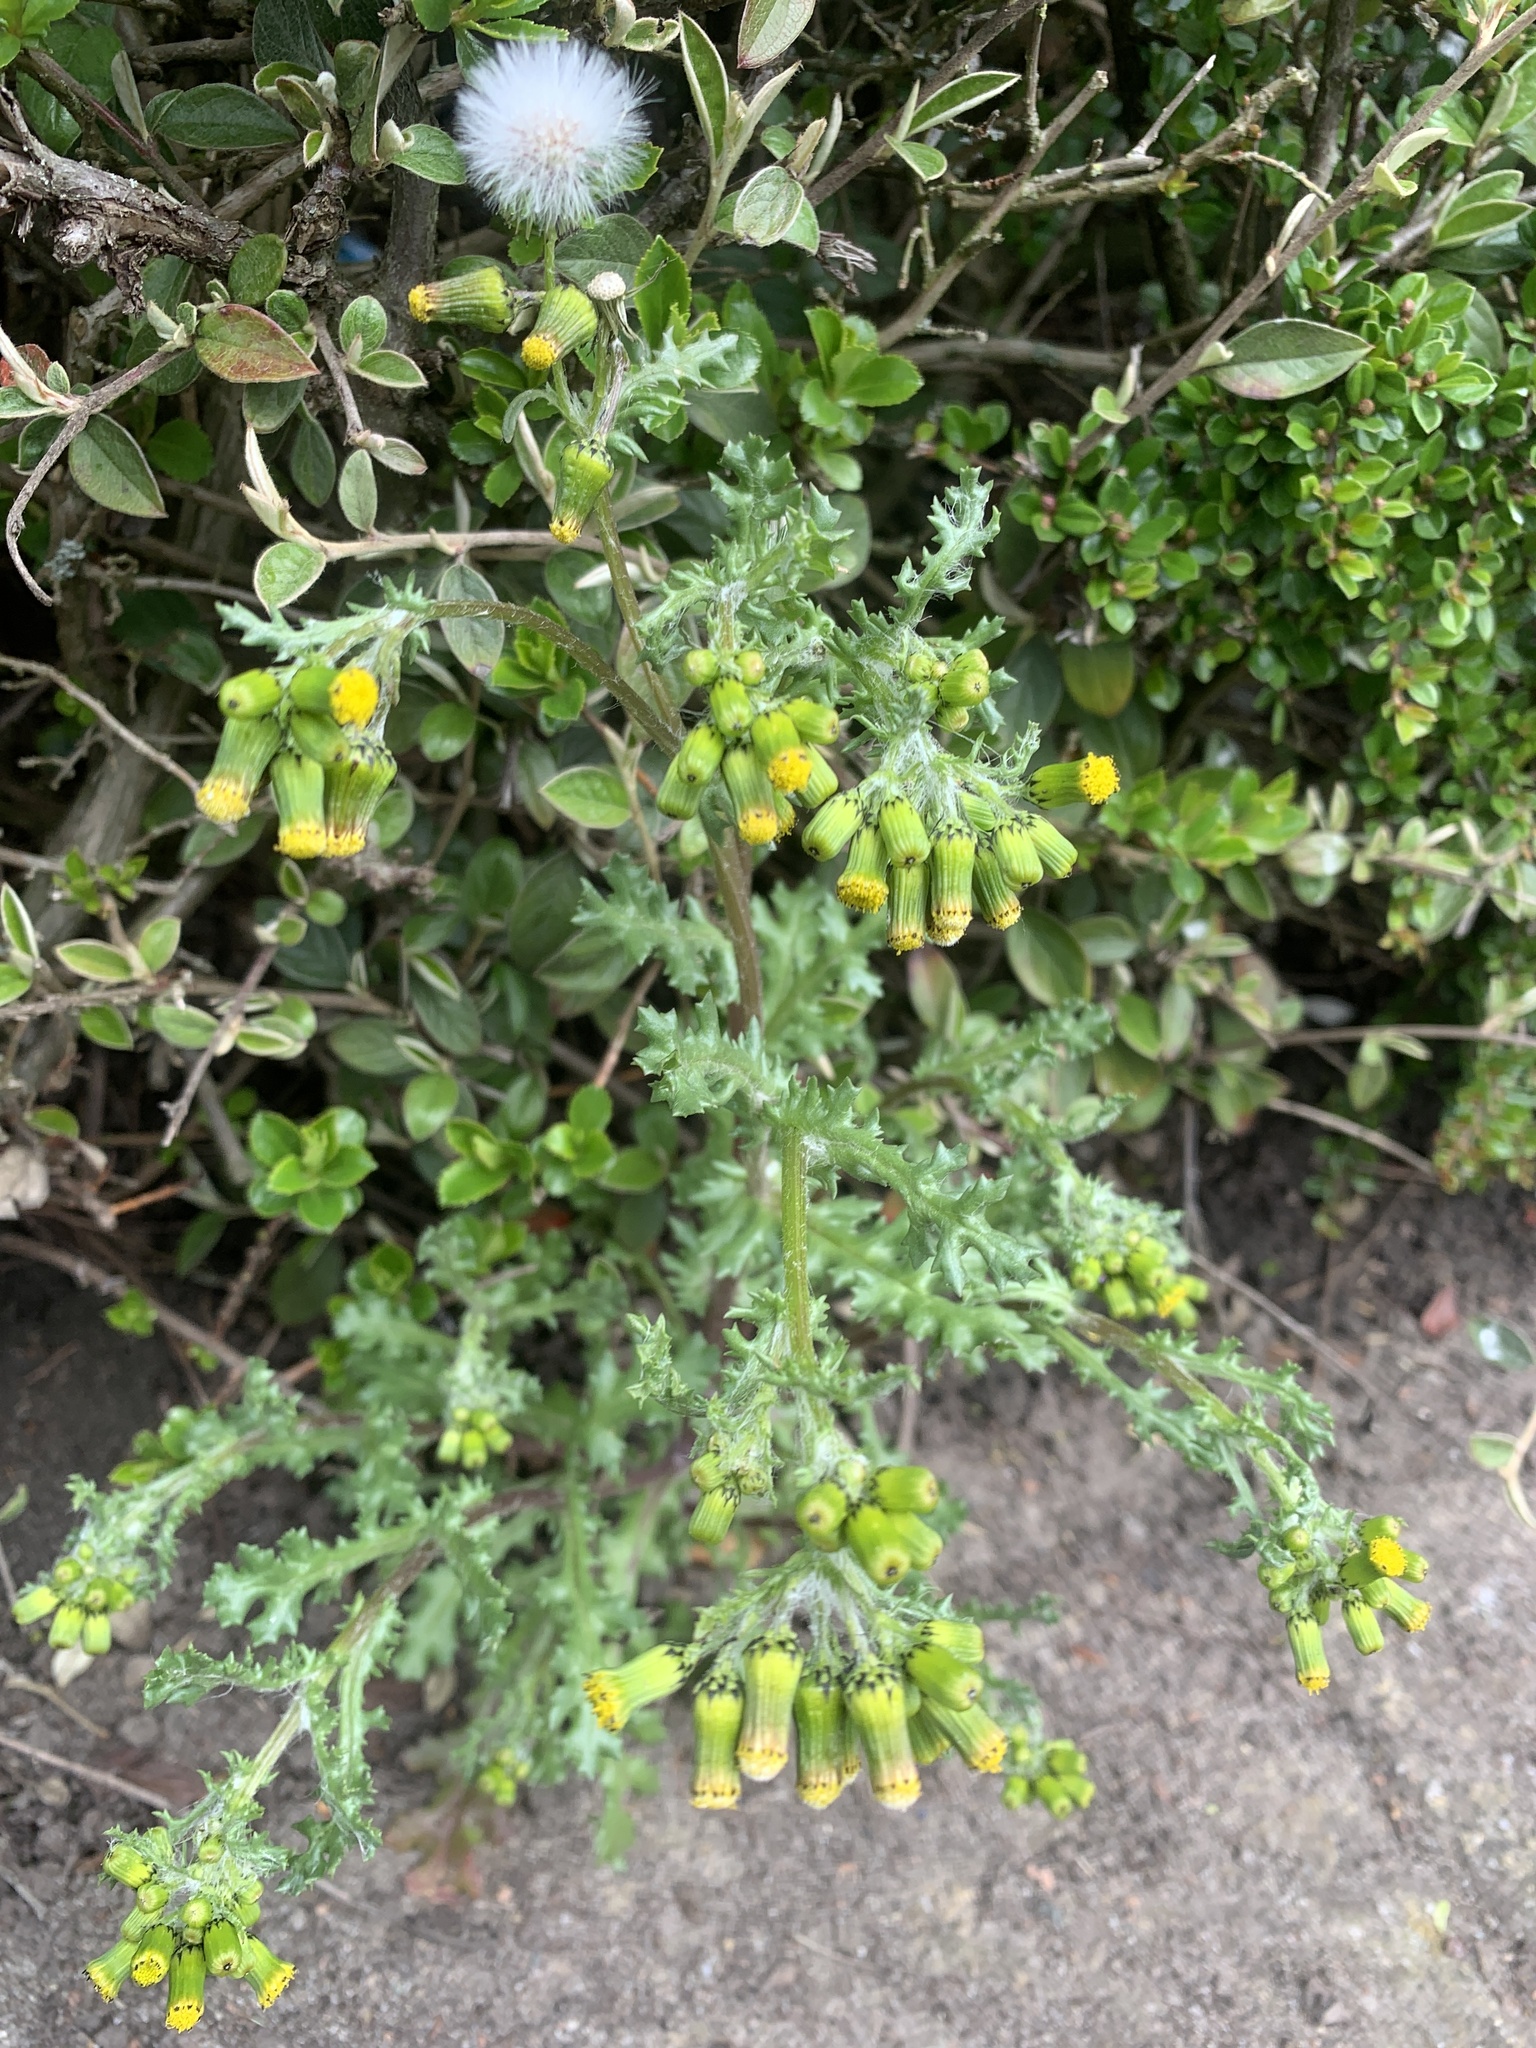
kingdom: Plantae
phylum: Tracheophyta
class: Magnoliopsida
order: Asterales
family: Asteraceae
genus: Senecio
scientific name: Senecio vulgaris
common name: Old-man-in-the-spring
